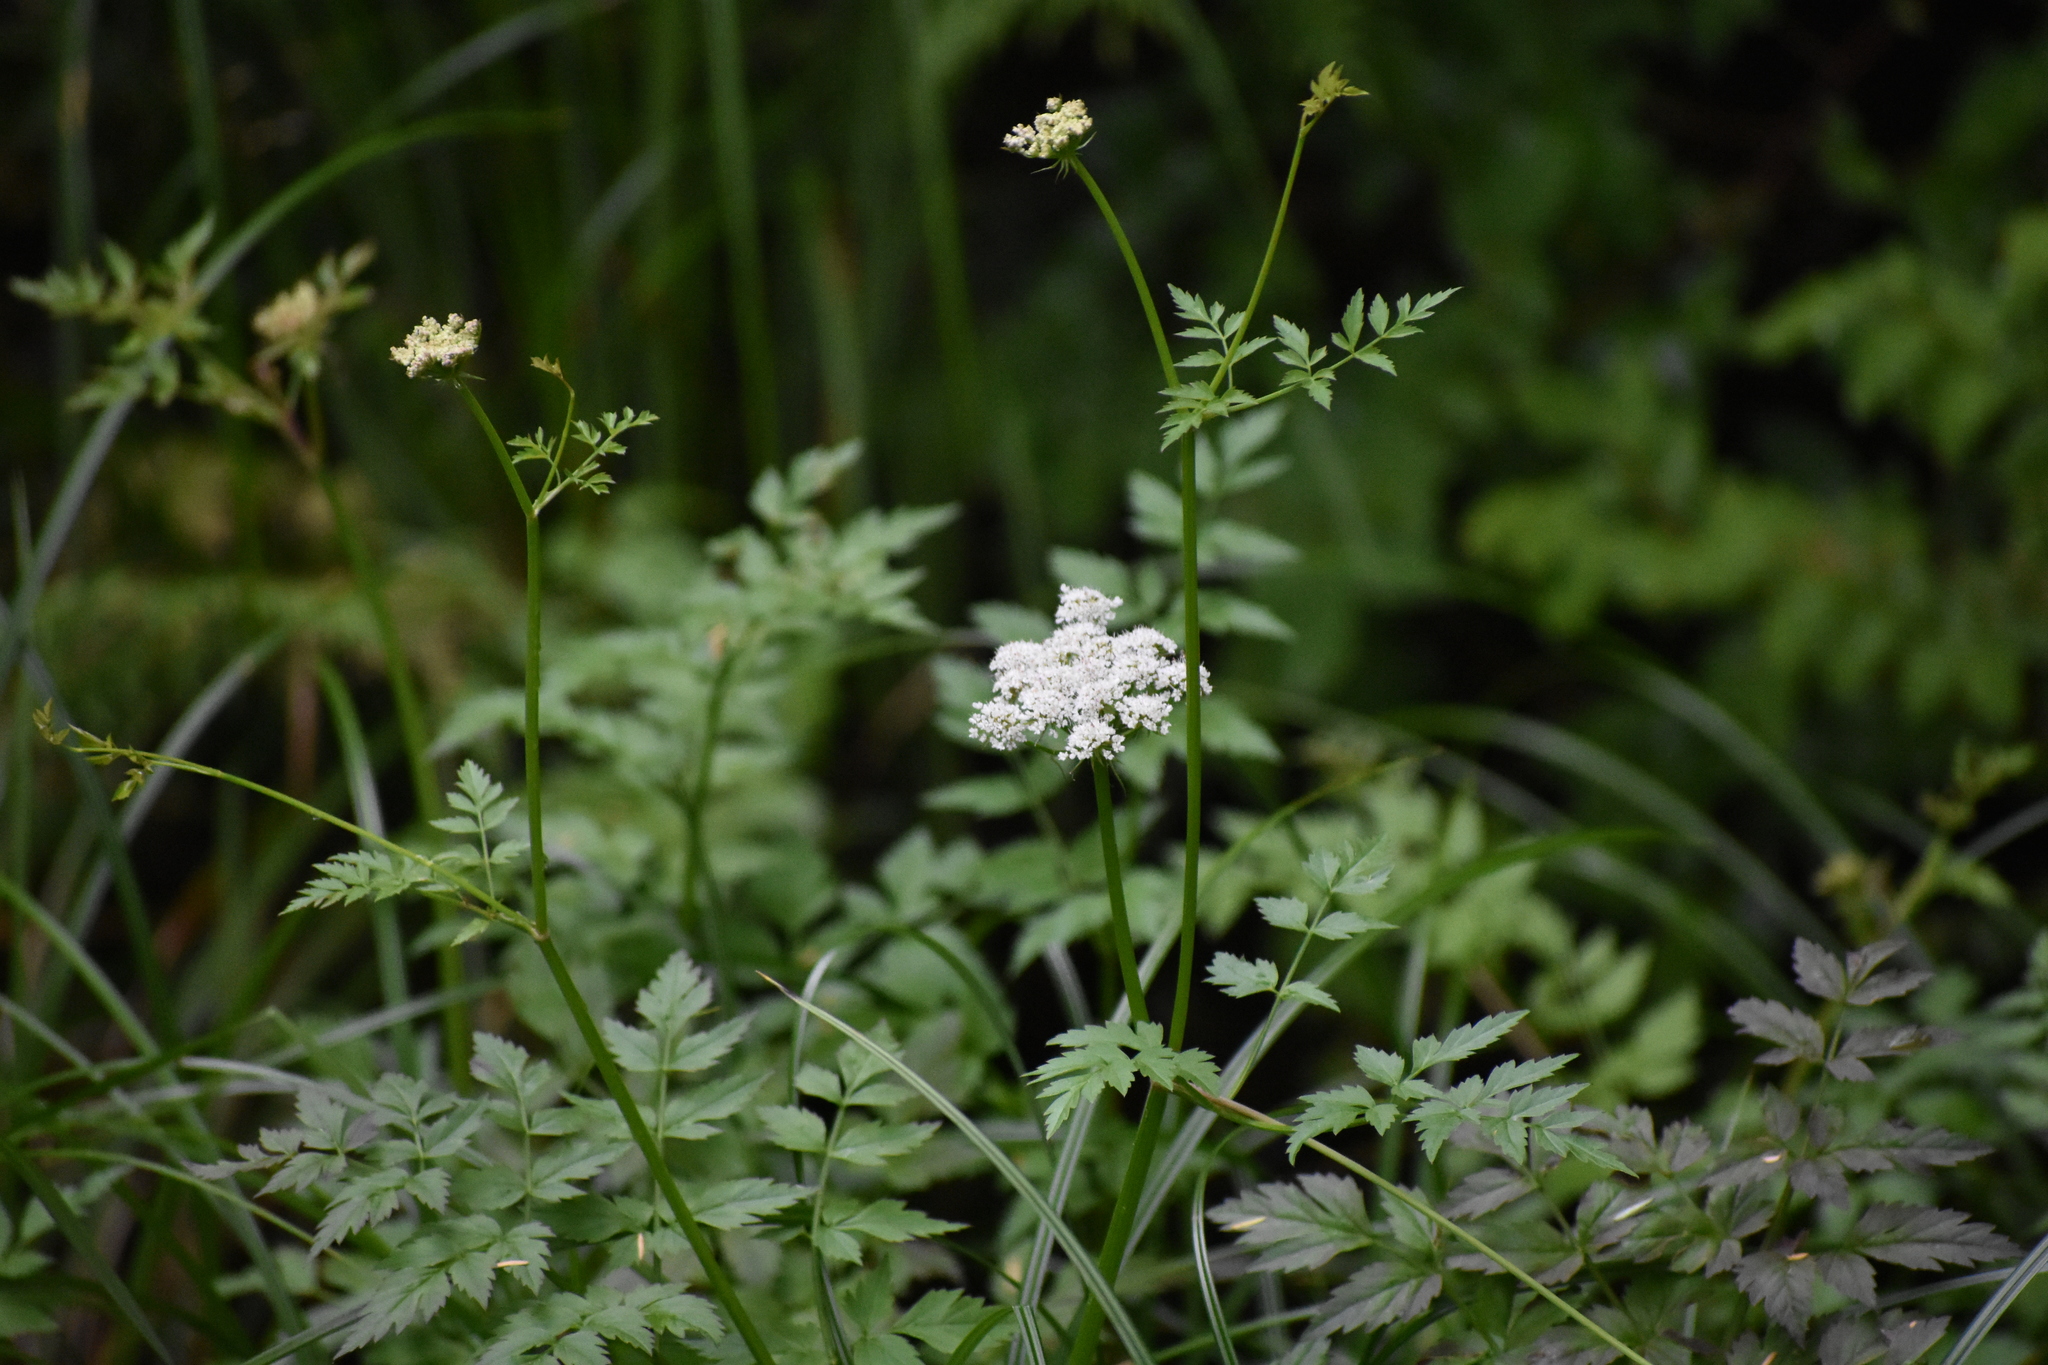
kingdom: Plantae
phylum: Tracheophyta
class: Magnoliopsida
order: Apiales
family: Apiaceae
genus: Oenanthe
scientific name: Oenanthe sarmentosa
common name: American water-parsley
